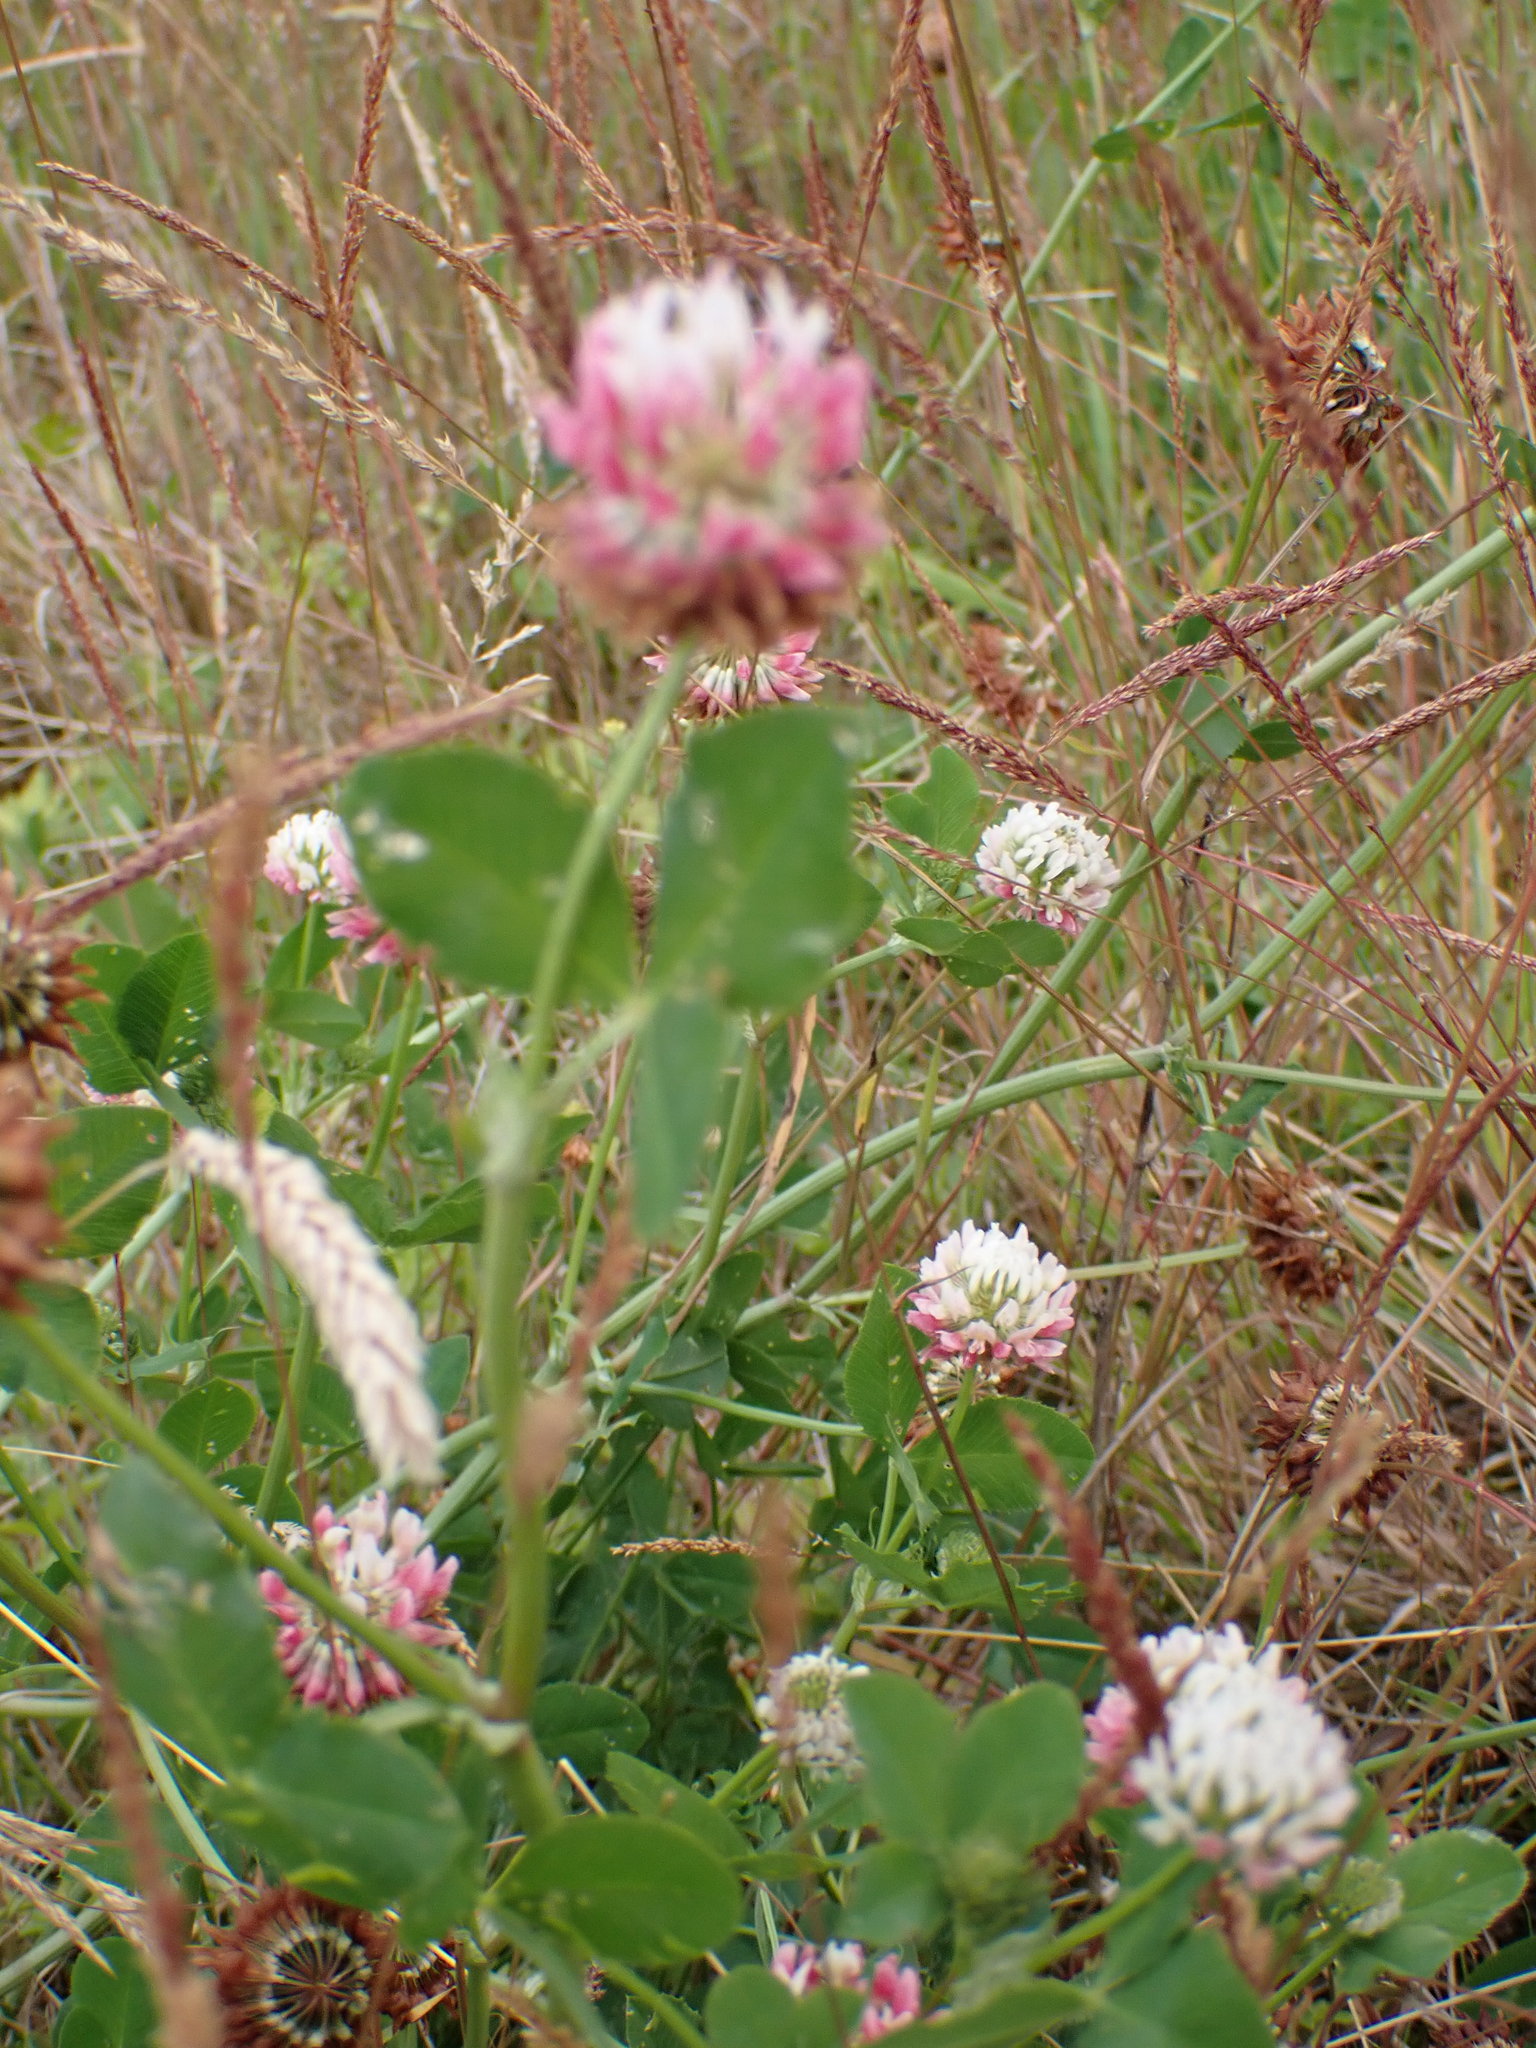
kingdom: Plantae
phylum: Tracheophyta
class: Magnoliopsida
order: Fabales
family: Fabaceae
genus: Trifolium
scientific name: Trifolium hybridum
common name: Alsike clover
